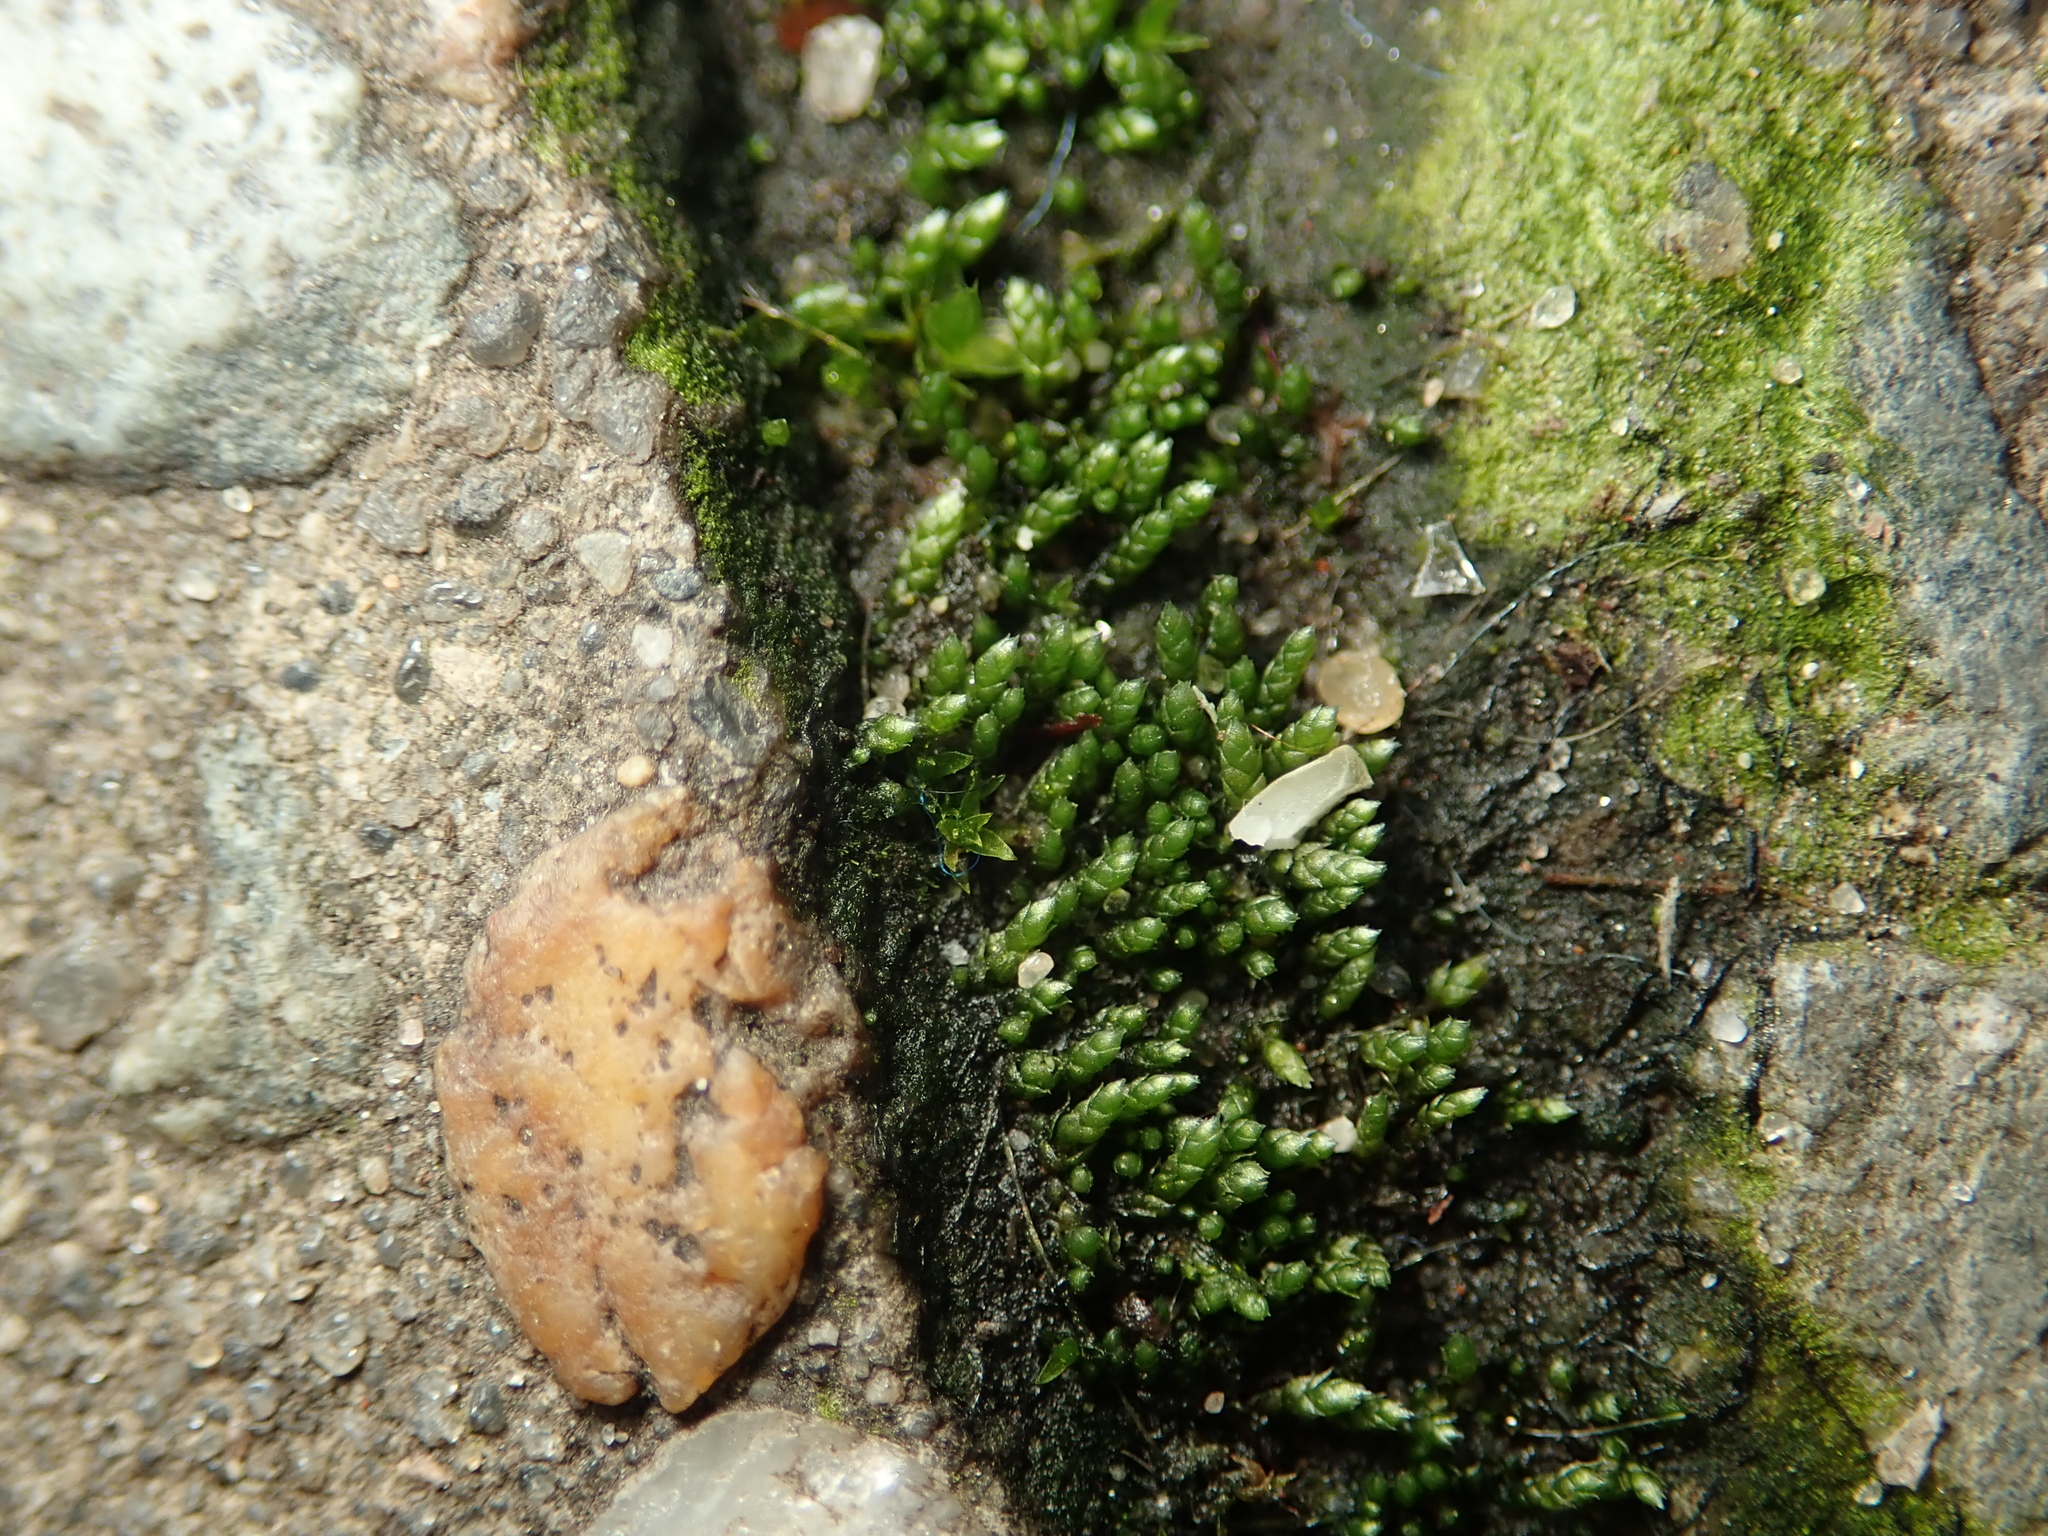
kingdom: Plantae
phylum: Bryophyta
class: Bryopsida
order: Bryales
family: Bryaceae
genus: Bryum
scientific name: Bryum argenteum
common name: Silver-moss
